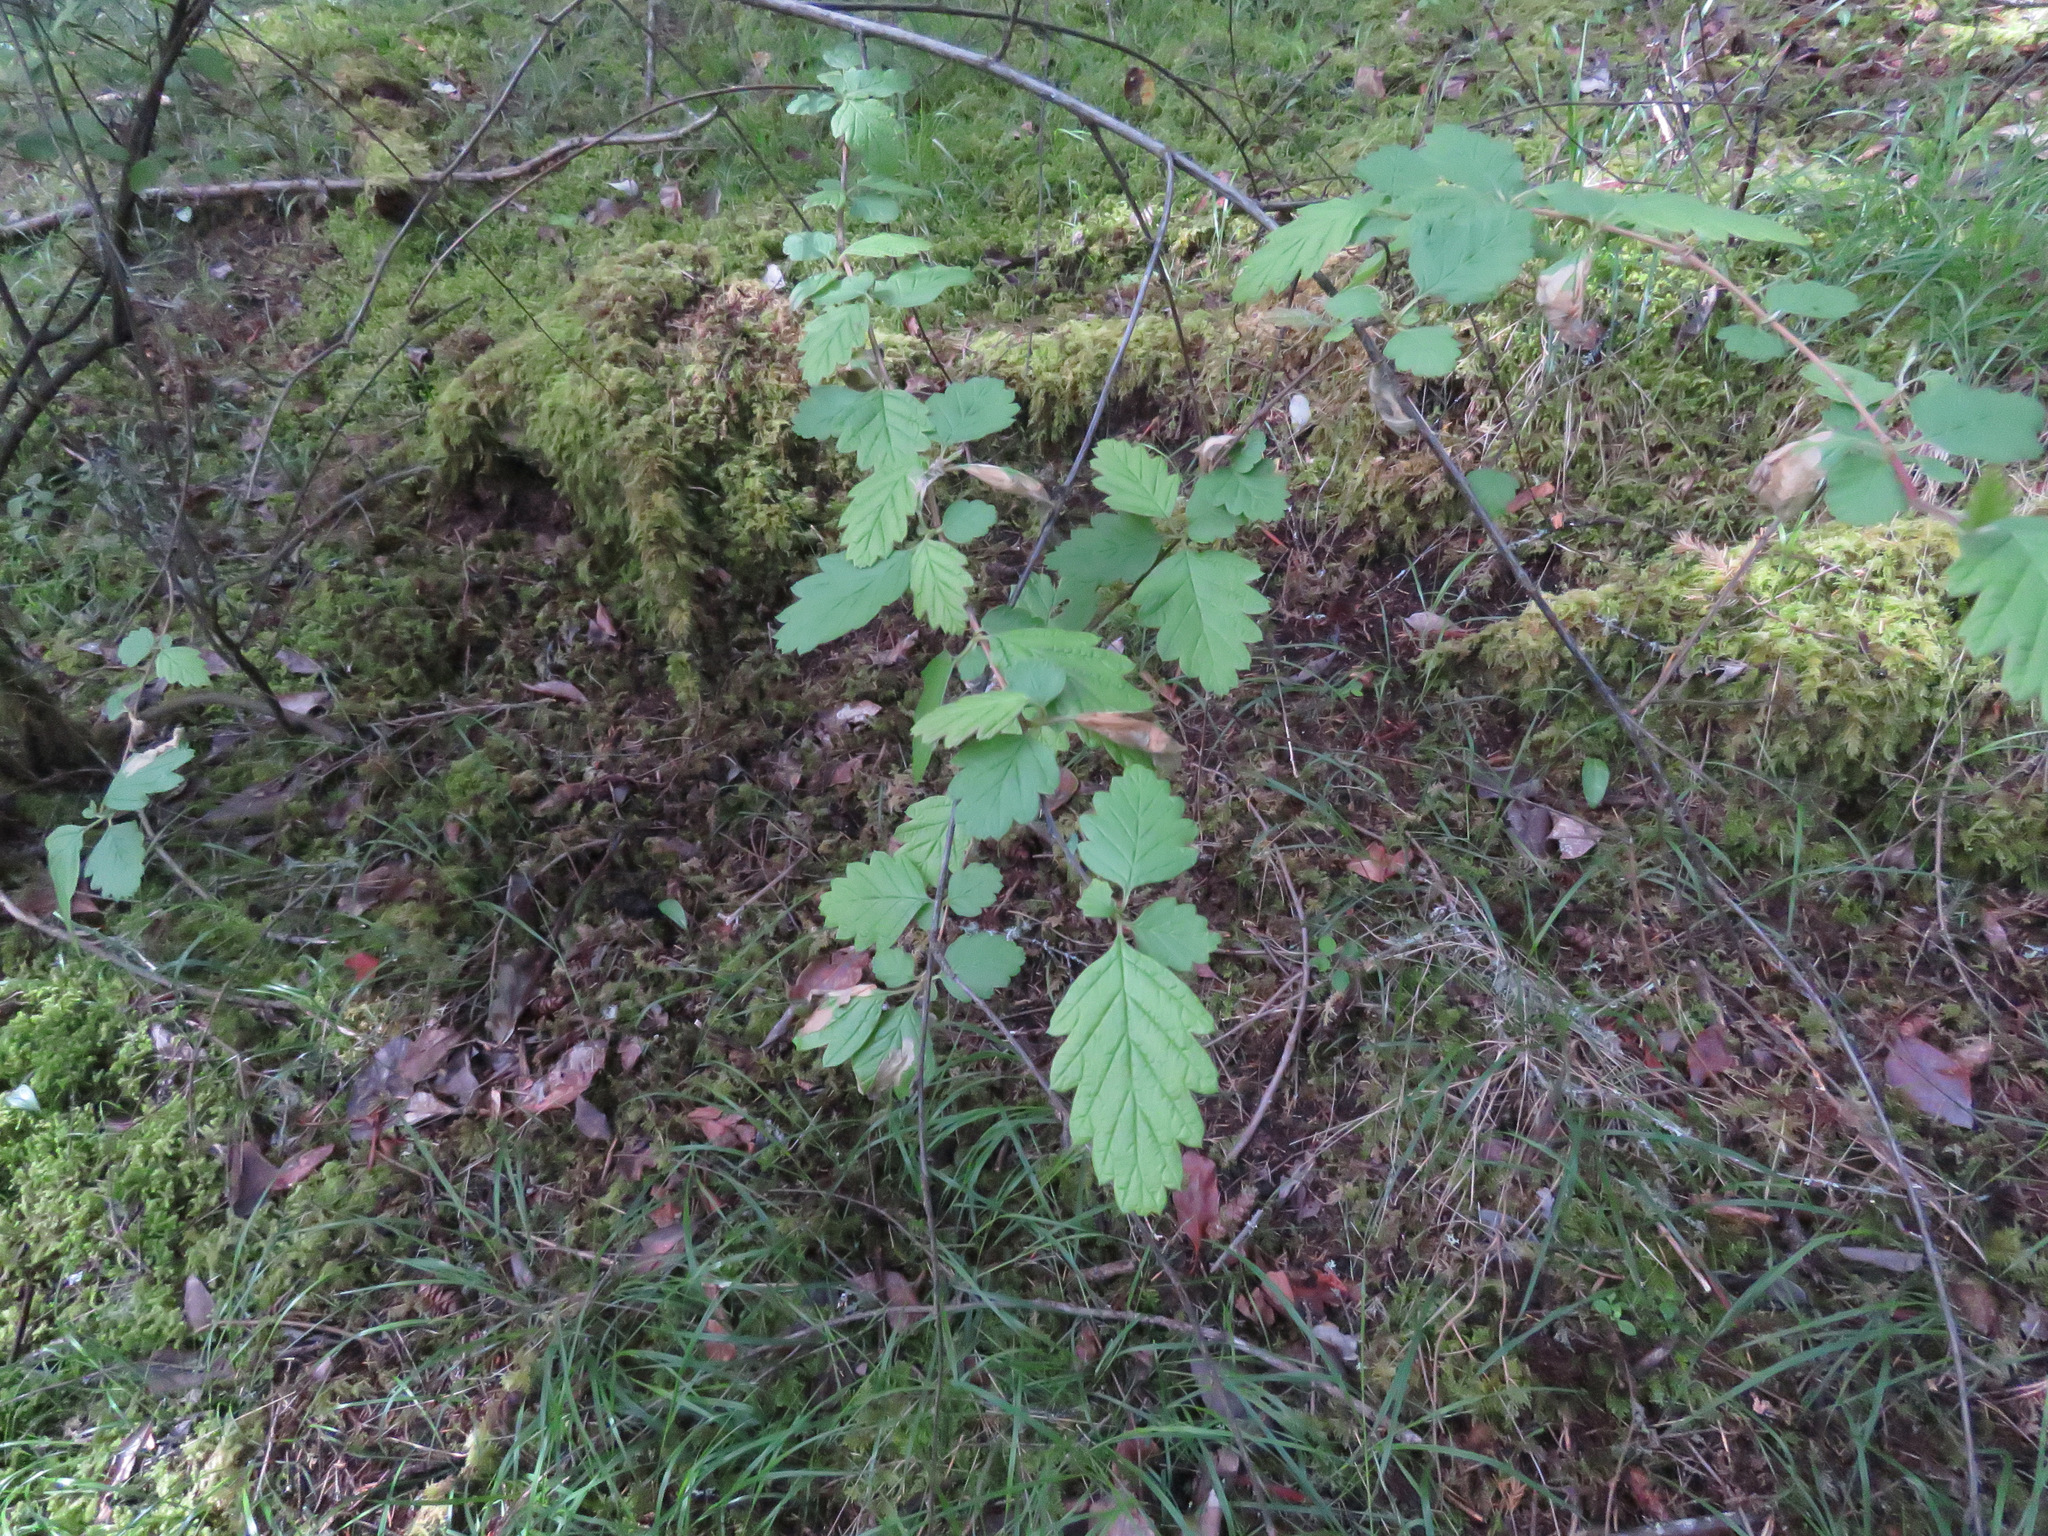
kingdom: Plantae
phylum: Tracheophyta
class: Magnoliopsida
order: Rosales
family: Rosaceae
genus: Holodiscus
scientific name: Holodiscus discolor
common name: Oceanspray
